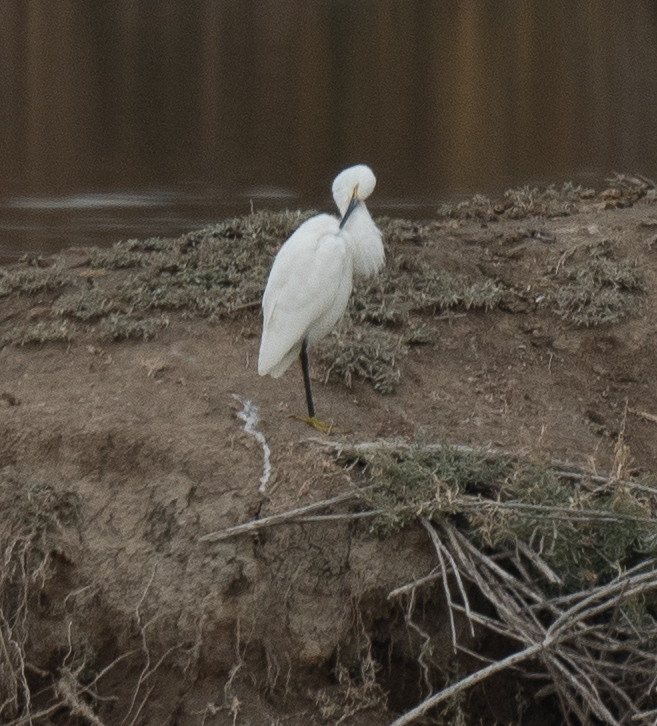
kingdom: Animalia
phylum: Chordata
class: Aves
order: Pelecaniformes
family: Ardeidae
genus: Egretta
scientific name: Egretta thula
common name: Snowy egret
